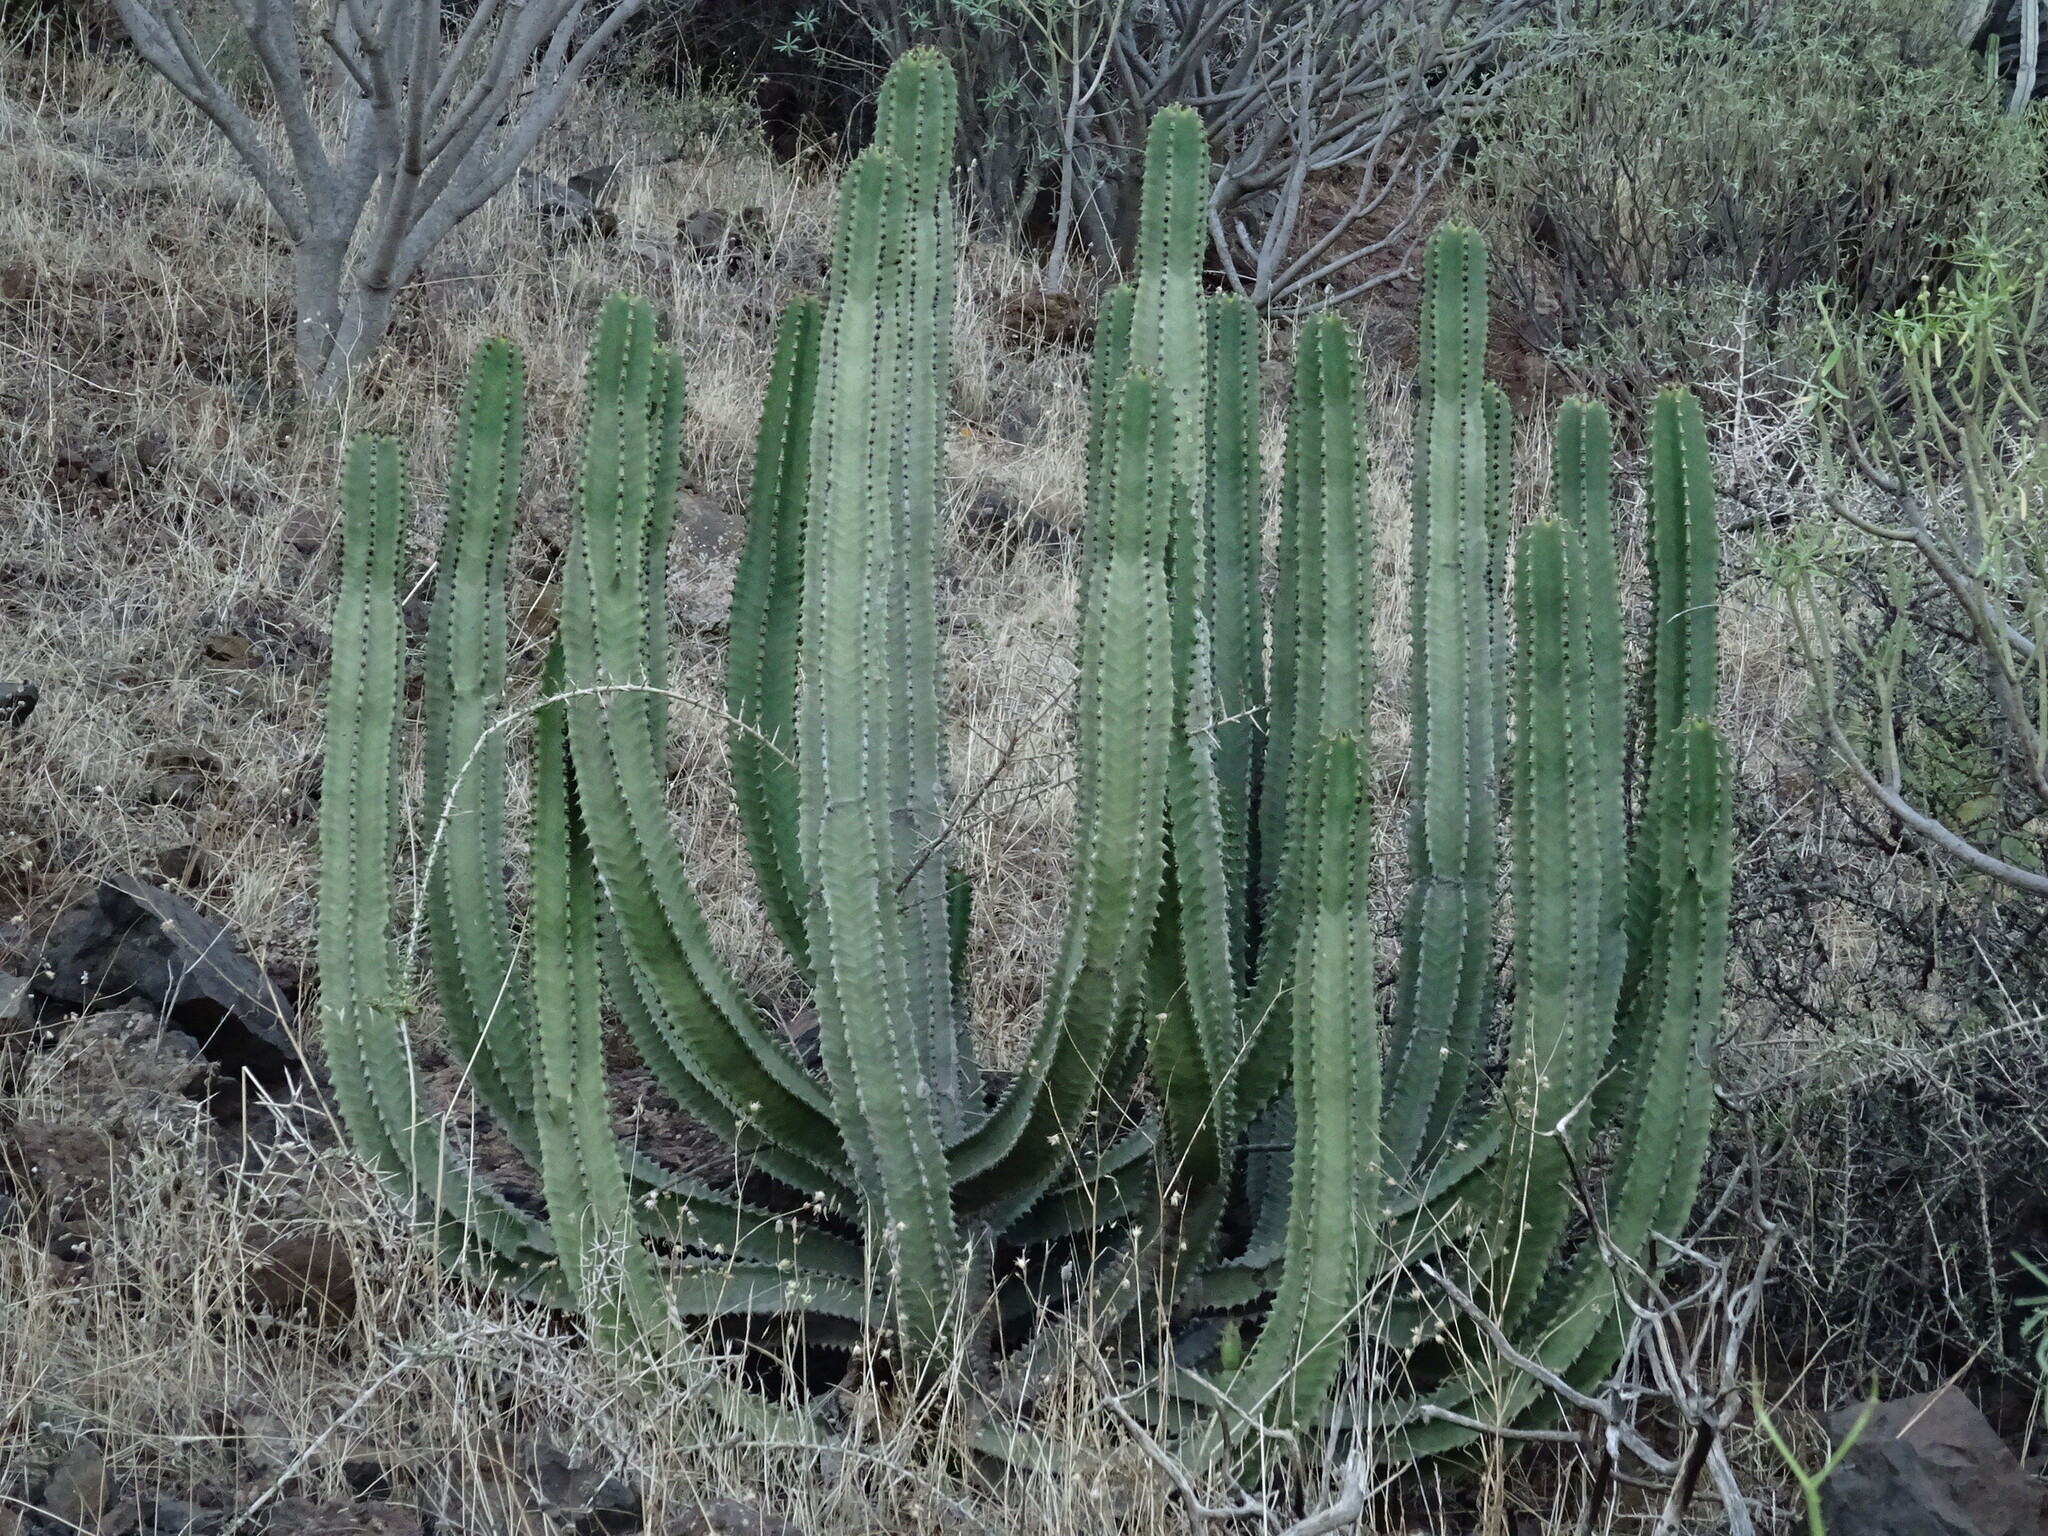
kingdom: Plantae
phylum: Tracheophyta
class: Magnoliopsida
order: Malpighiales
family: Euphorbiaceae
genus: Euphorbia
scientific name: Euphorbia canariensis
